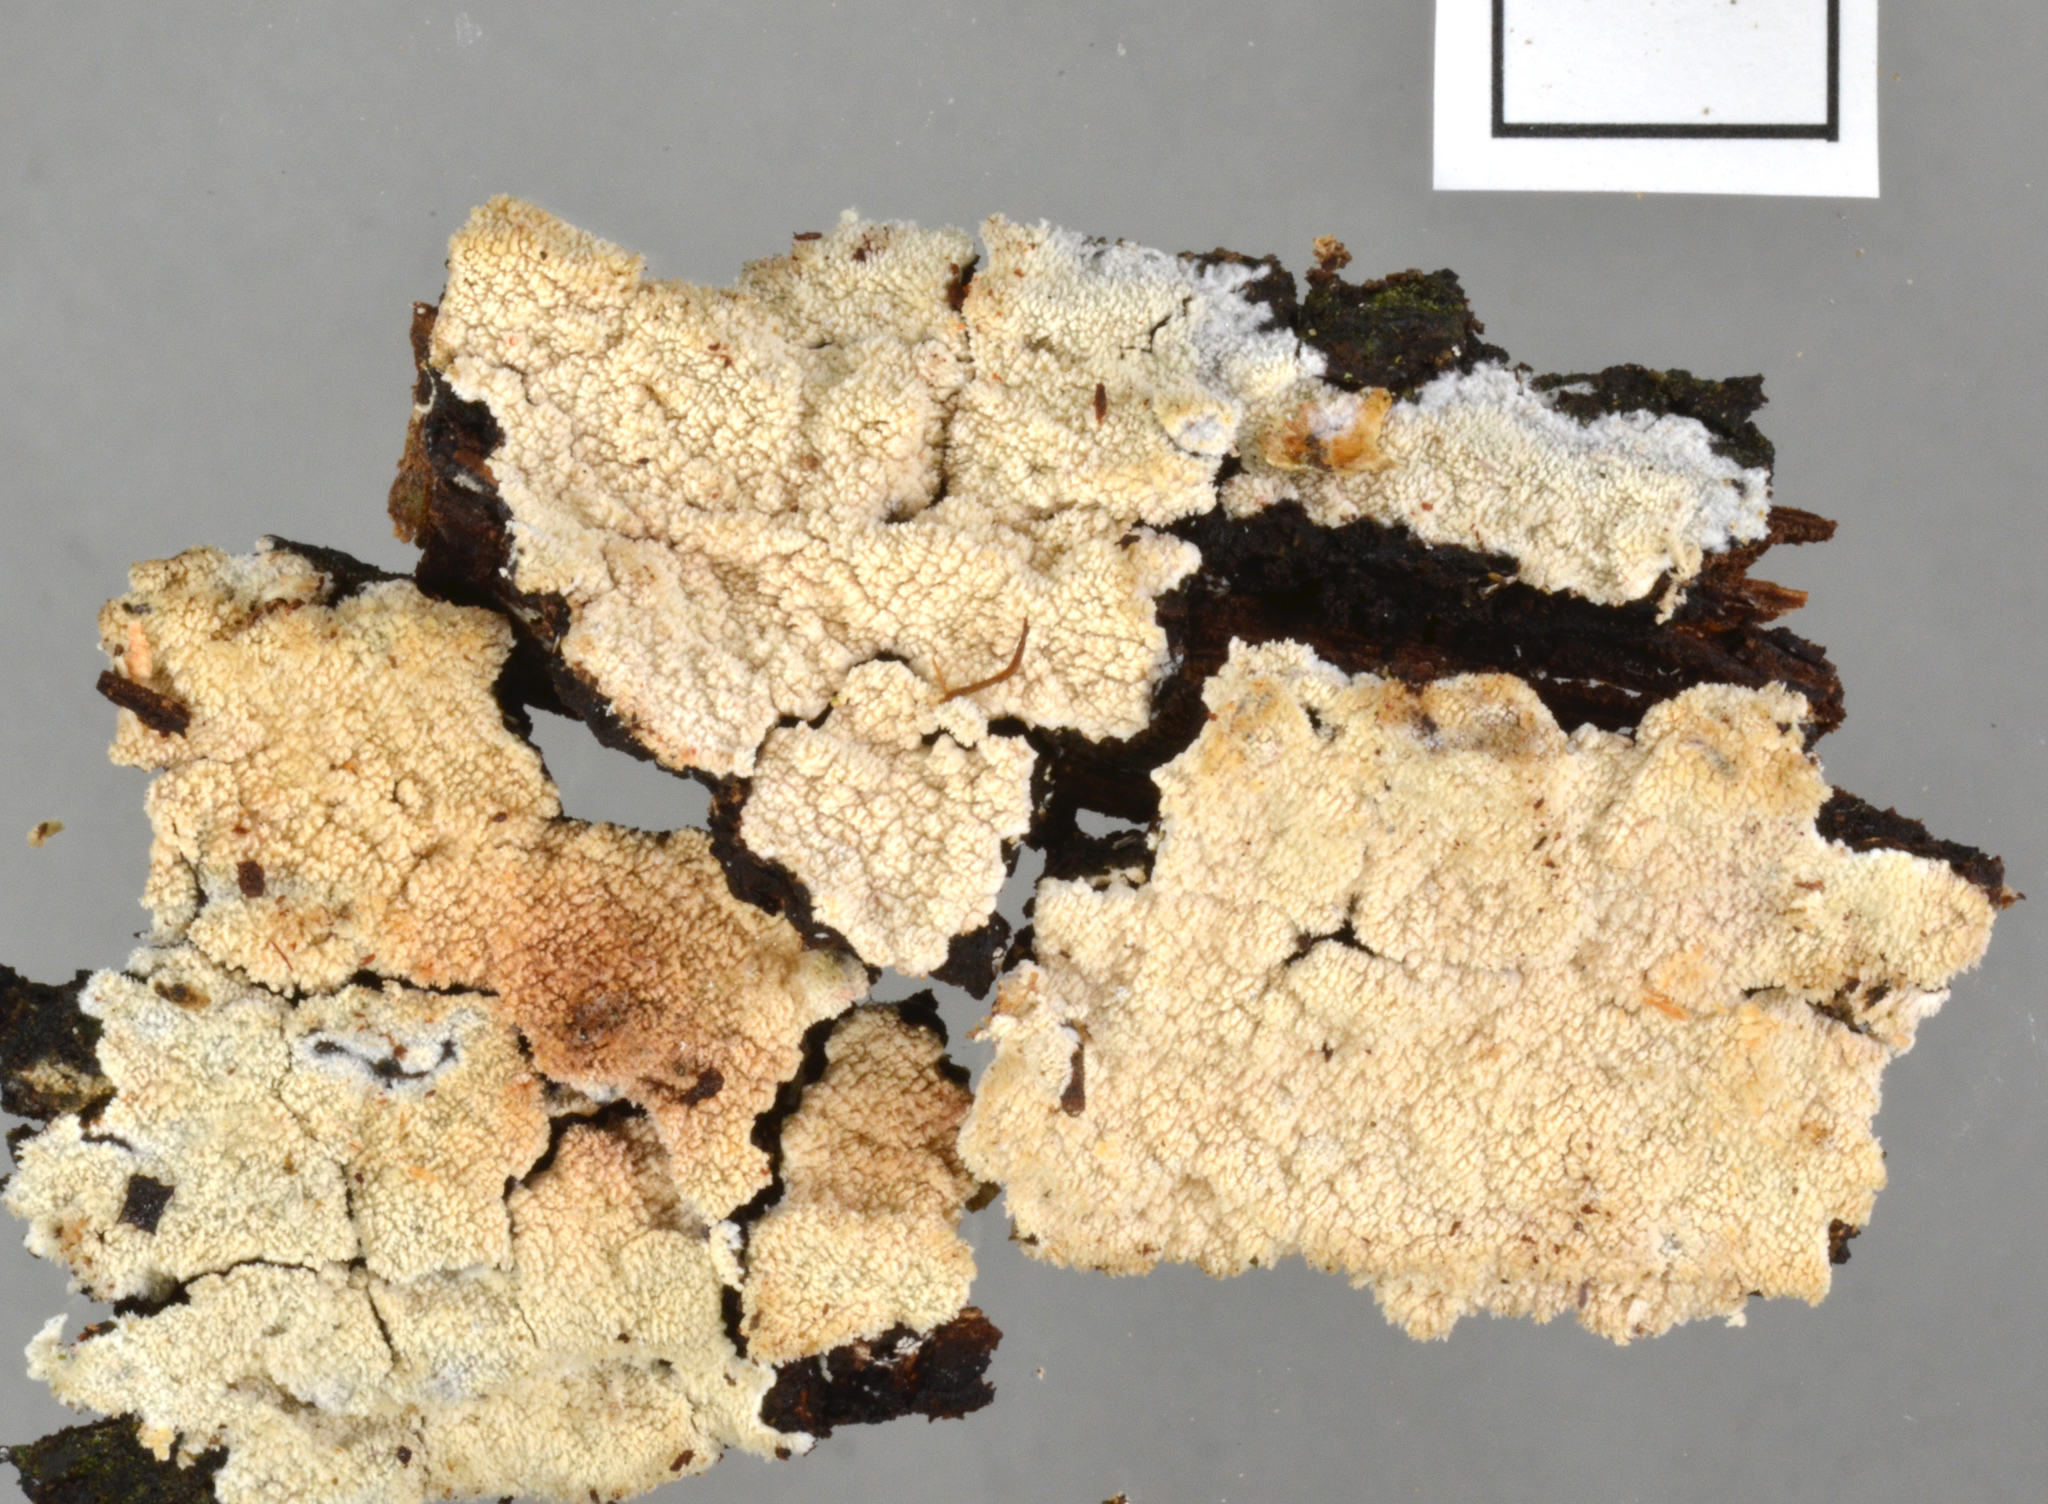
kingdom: Fungi
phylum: Basidiomycota
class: Agaricomycetes
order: Polyporales
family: Steccherinaceae
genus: Cabalodontia
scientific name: Cabalodontia
